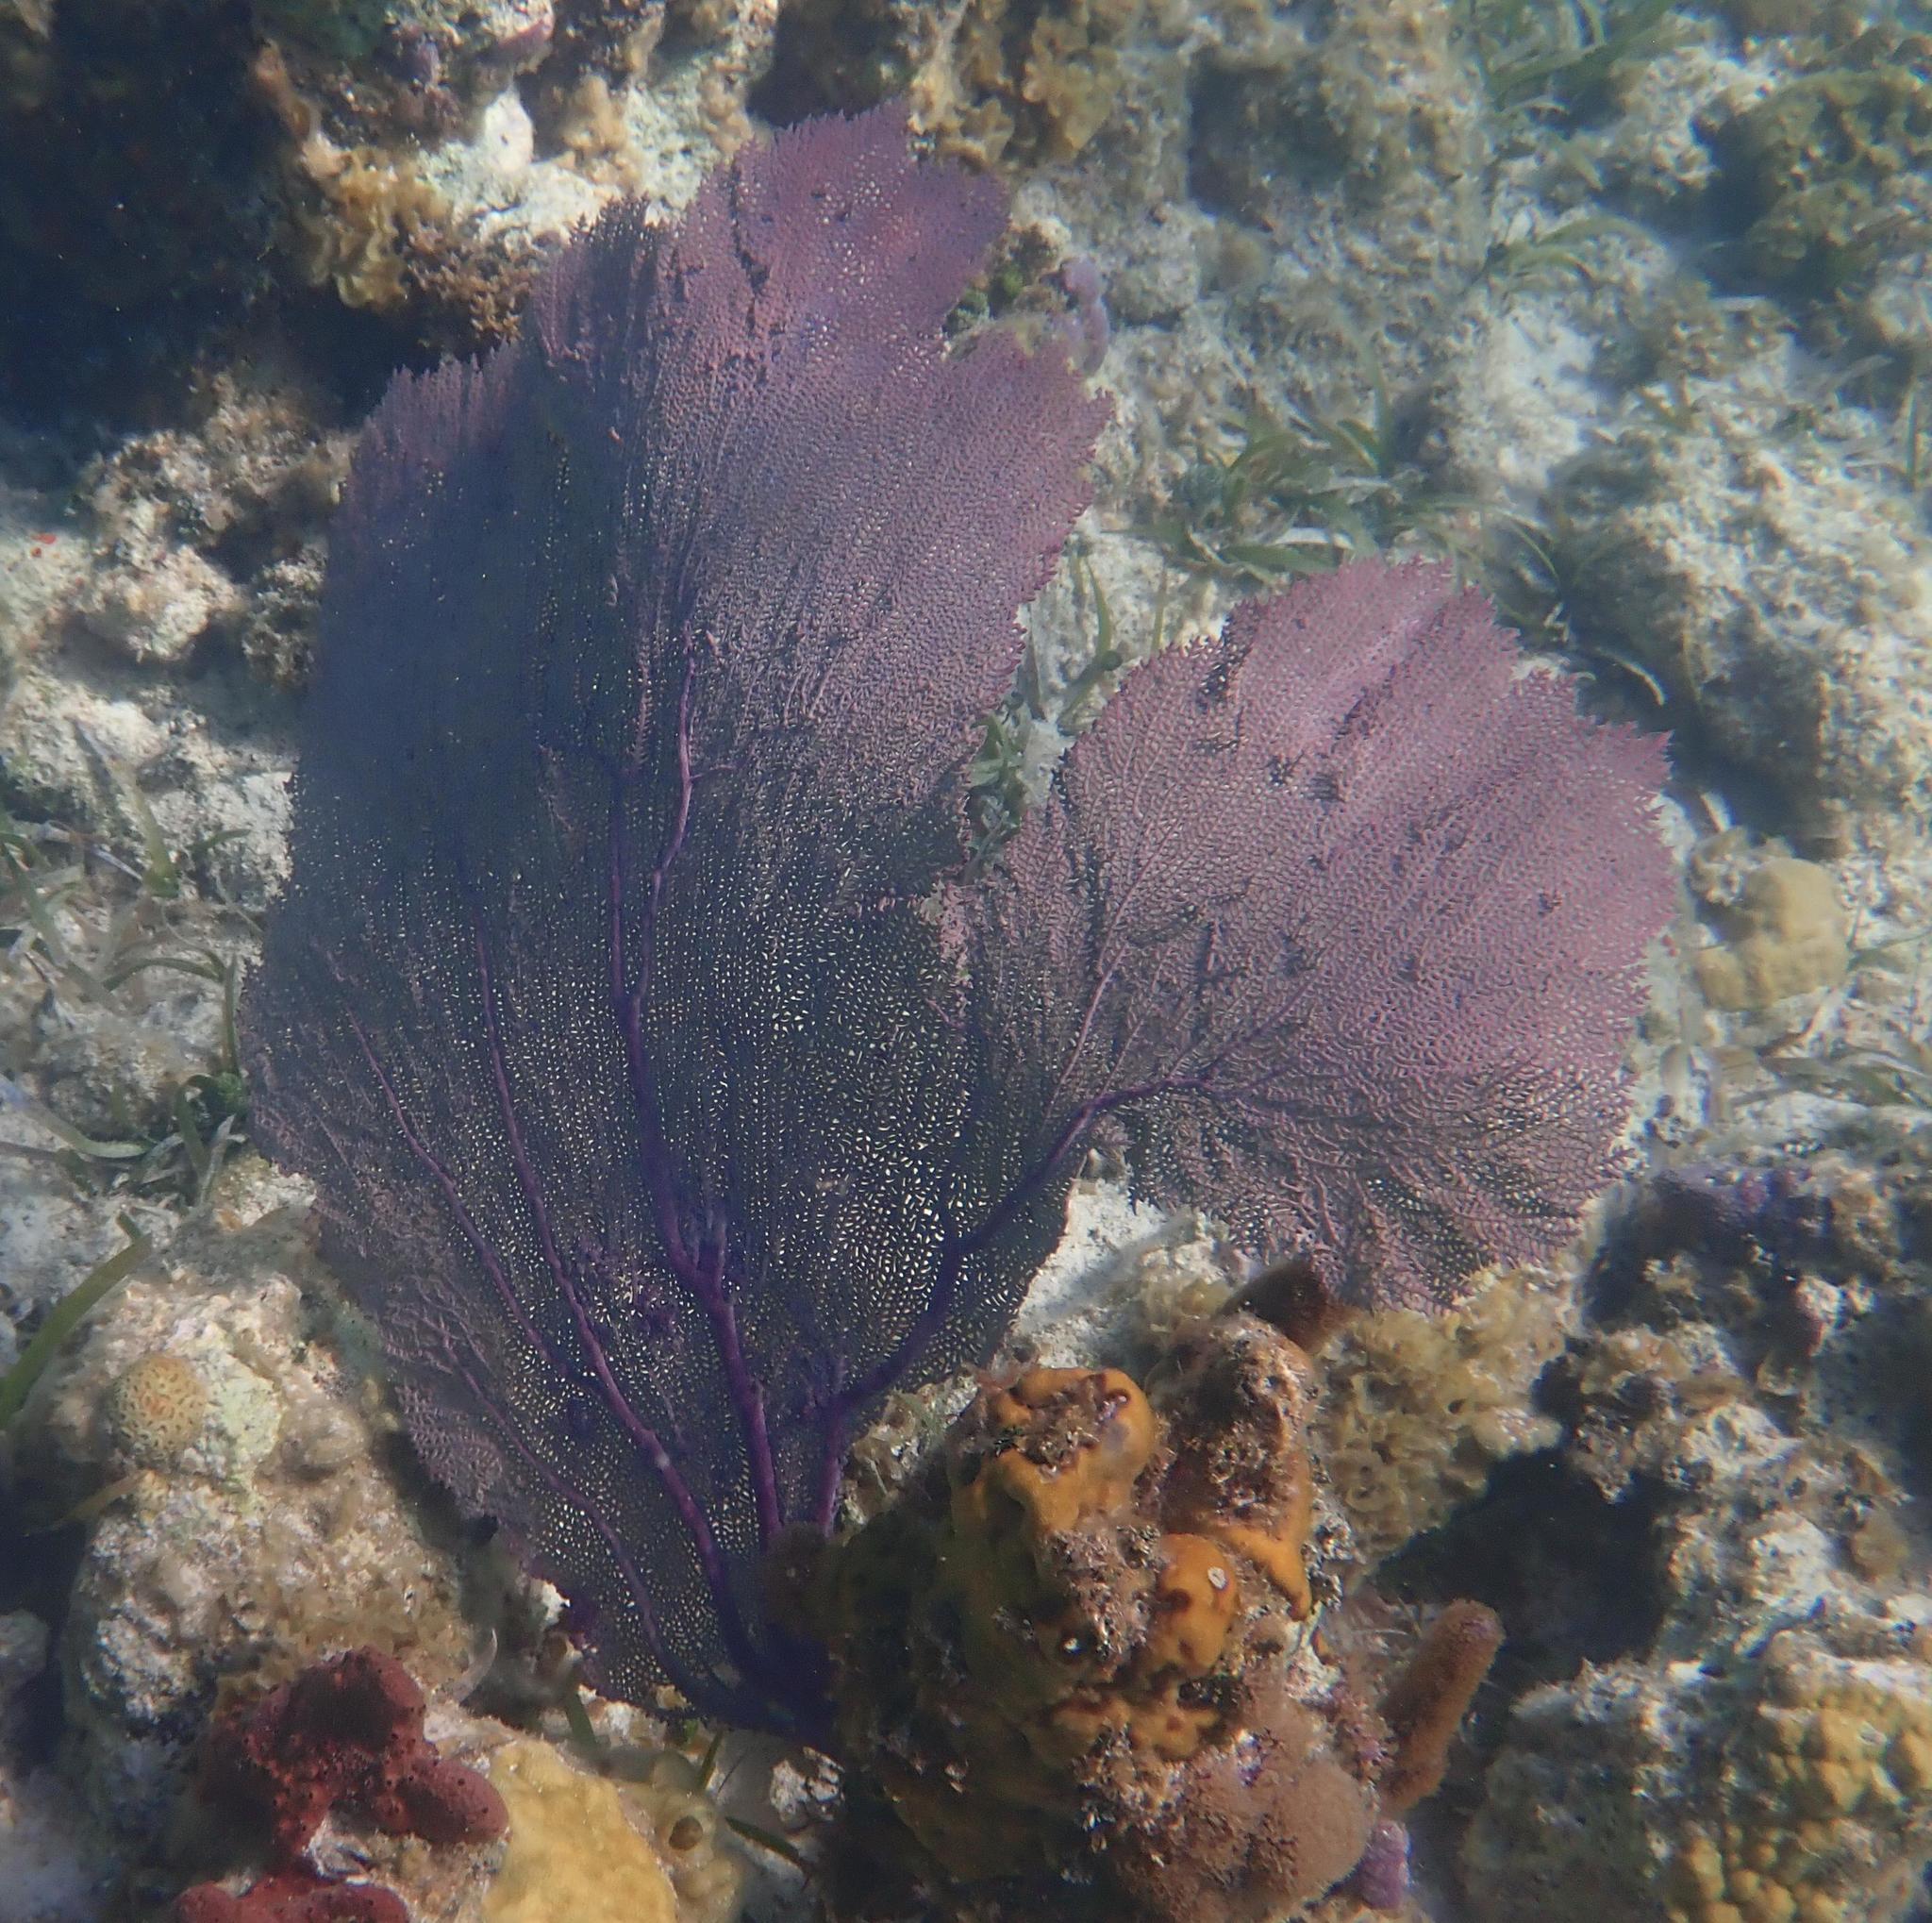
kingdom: Animalia
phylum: Cnidaria
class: Anthozoa
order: Malacalcyonacea
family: Gorgoniidae
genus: Gorgonia
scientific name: Gorgonia ventalina
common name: Common sea fan
